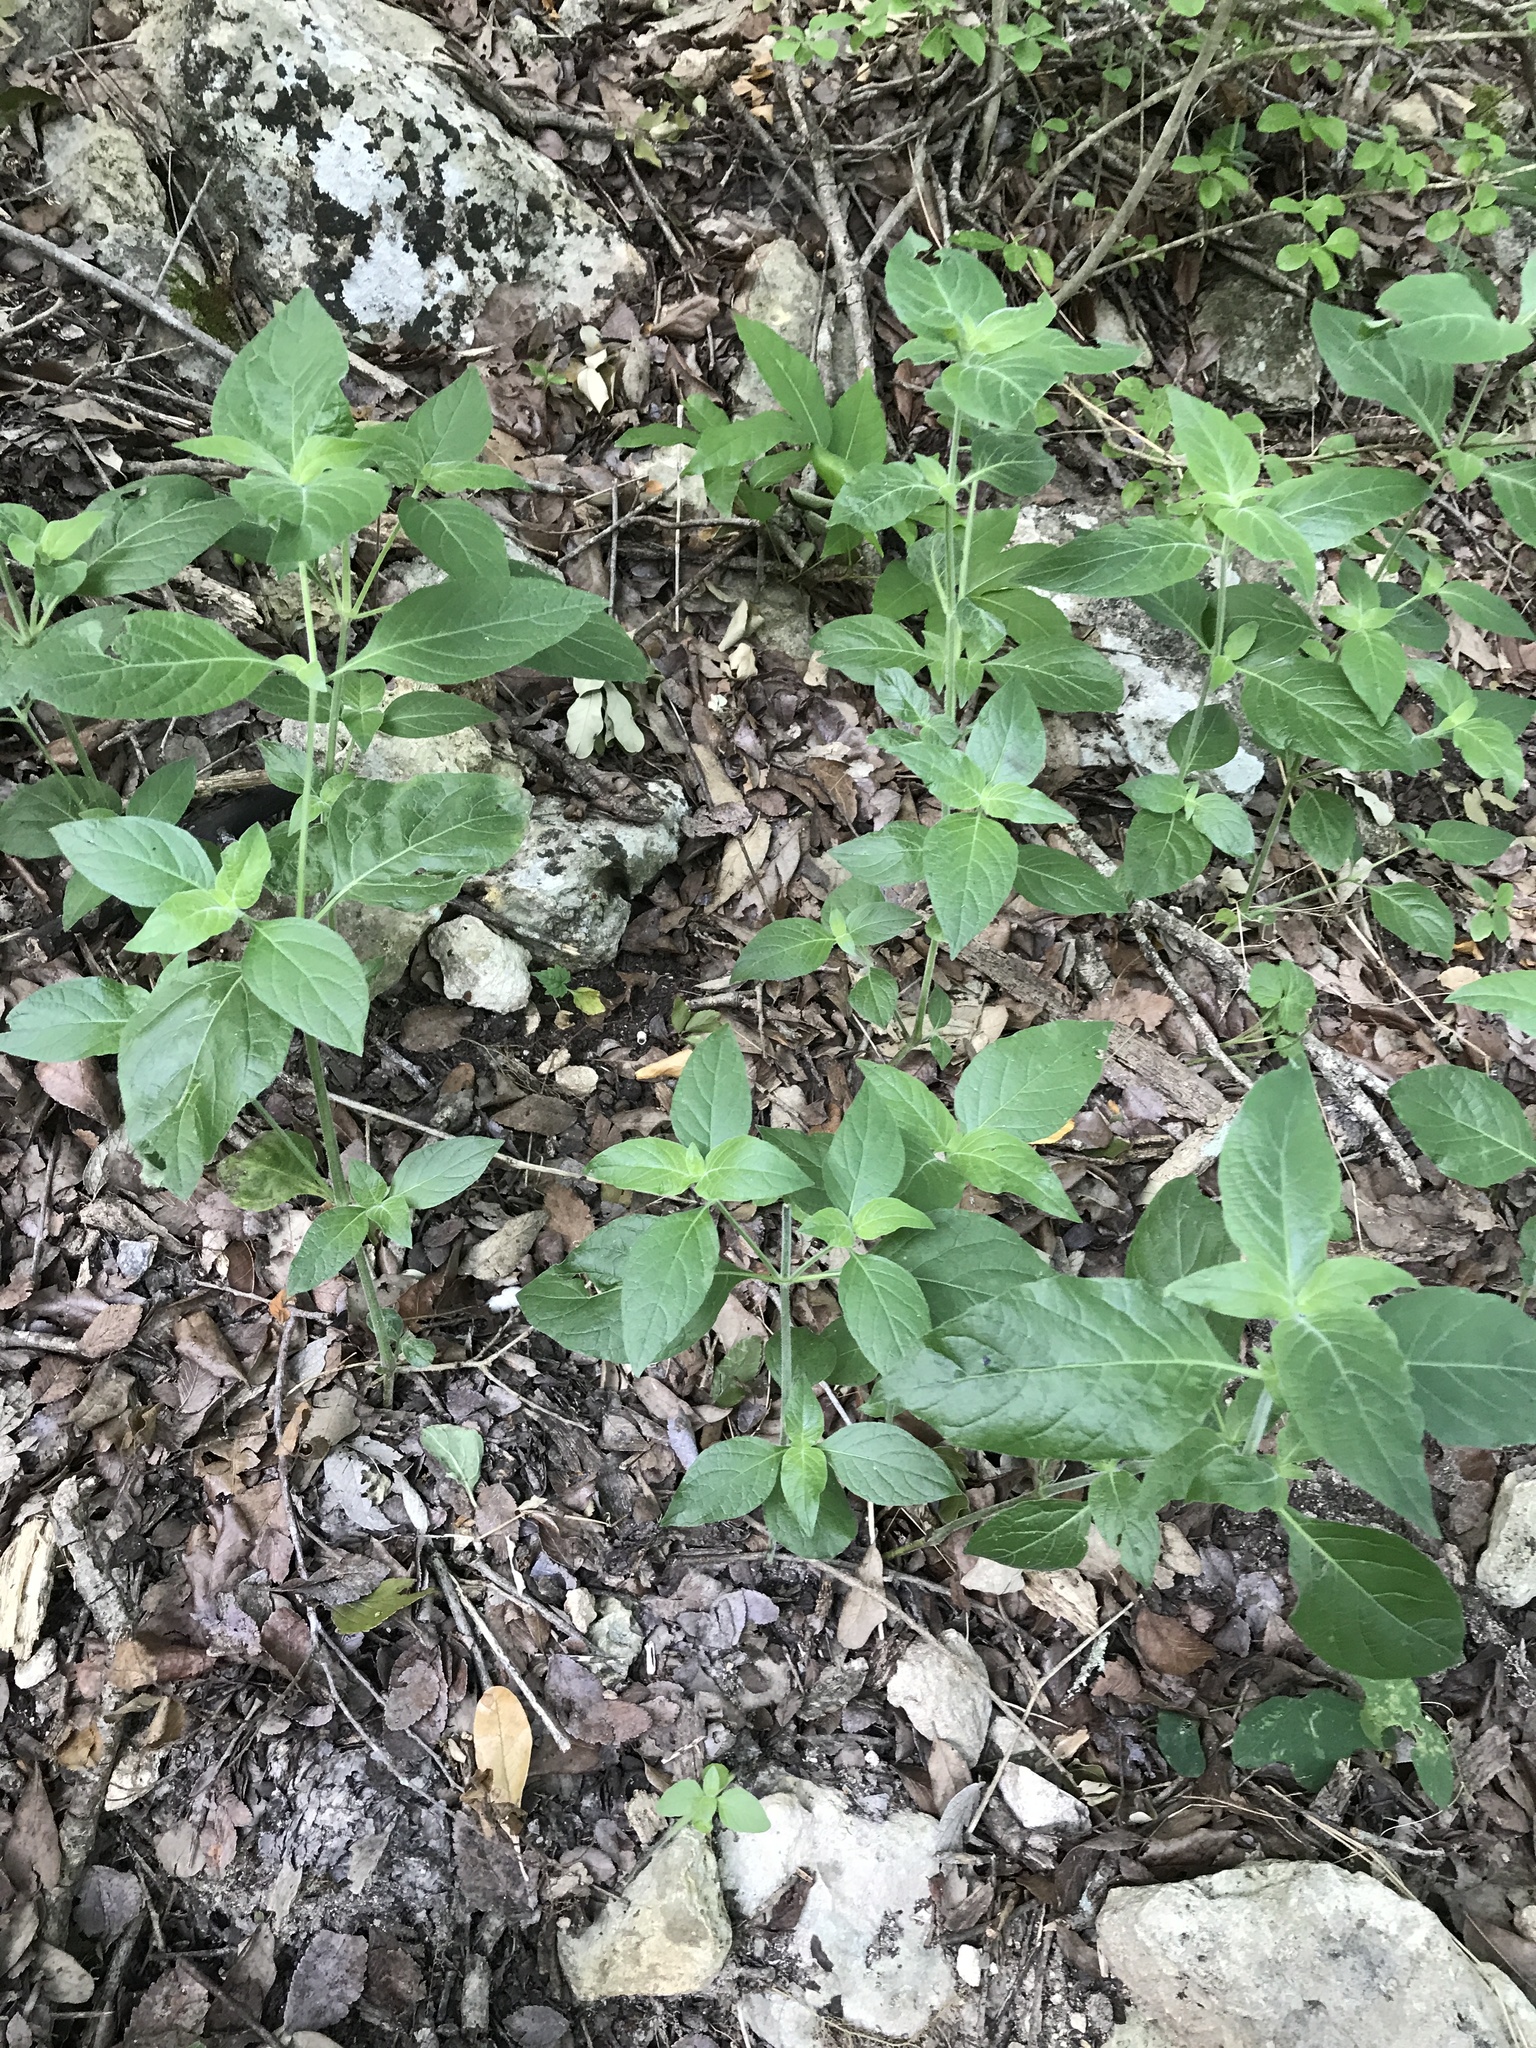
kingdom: Plantae
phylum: Tracheophyta
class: Magnoliopsida
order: Lamiales
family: Acanthaceae
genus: Ruellia
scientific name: Ruellia drummondiana
